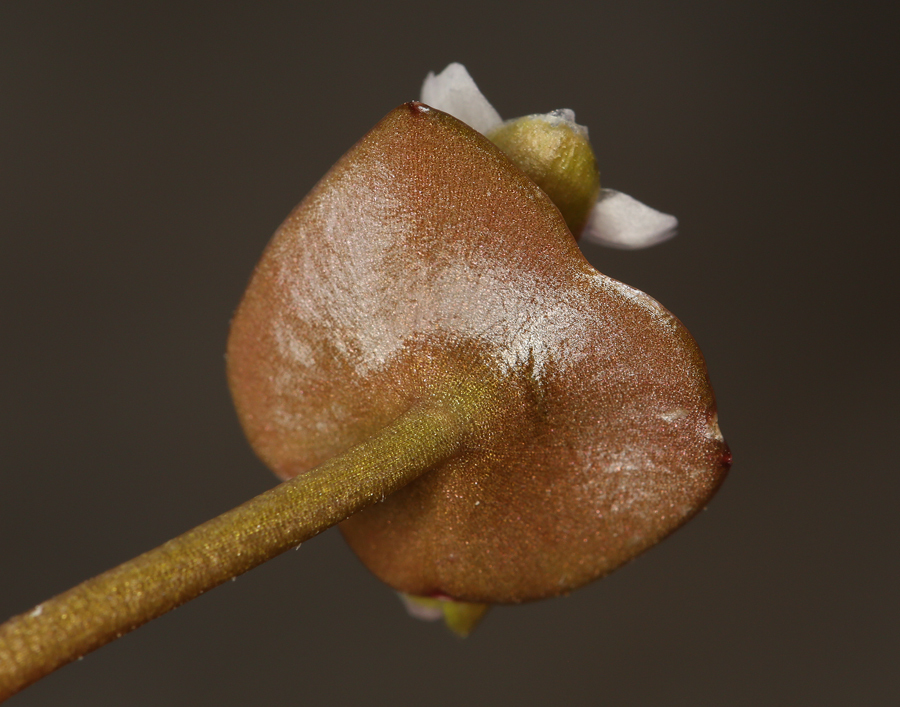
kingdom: Plantae
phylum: Tracheophyta
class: Magnoliopsida
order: Caryophyllales
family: Montiaceae
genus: Claytonia
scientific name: Claytonia parviflora
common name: Indian-lettuce
